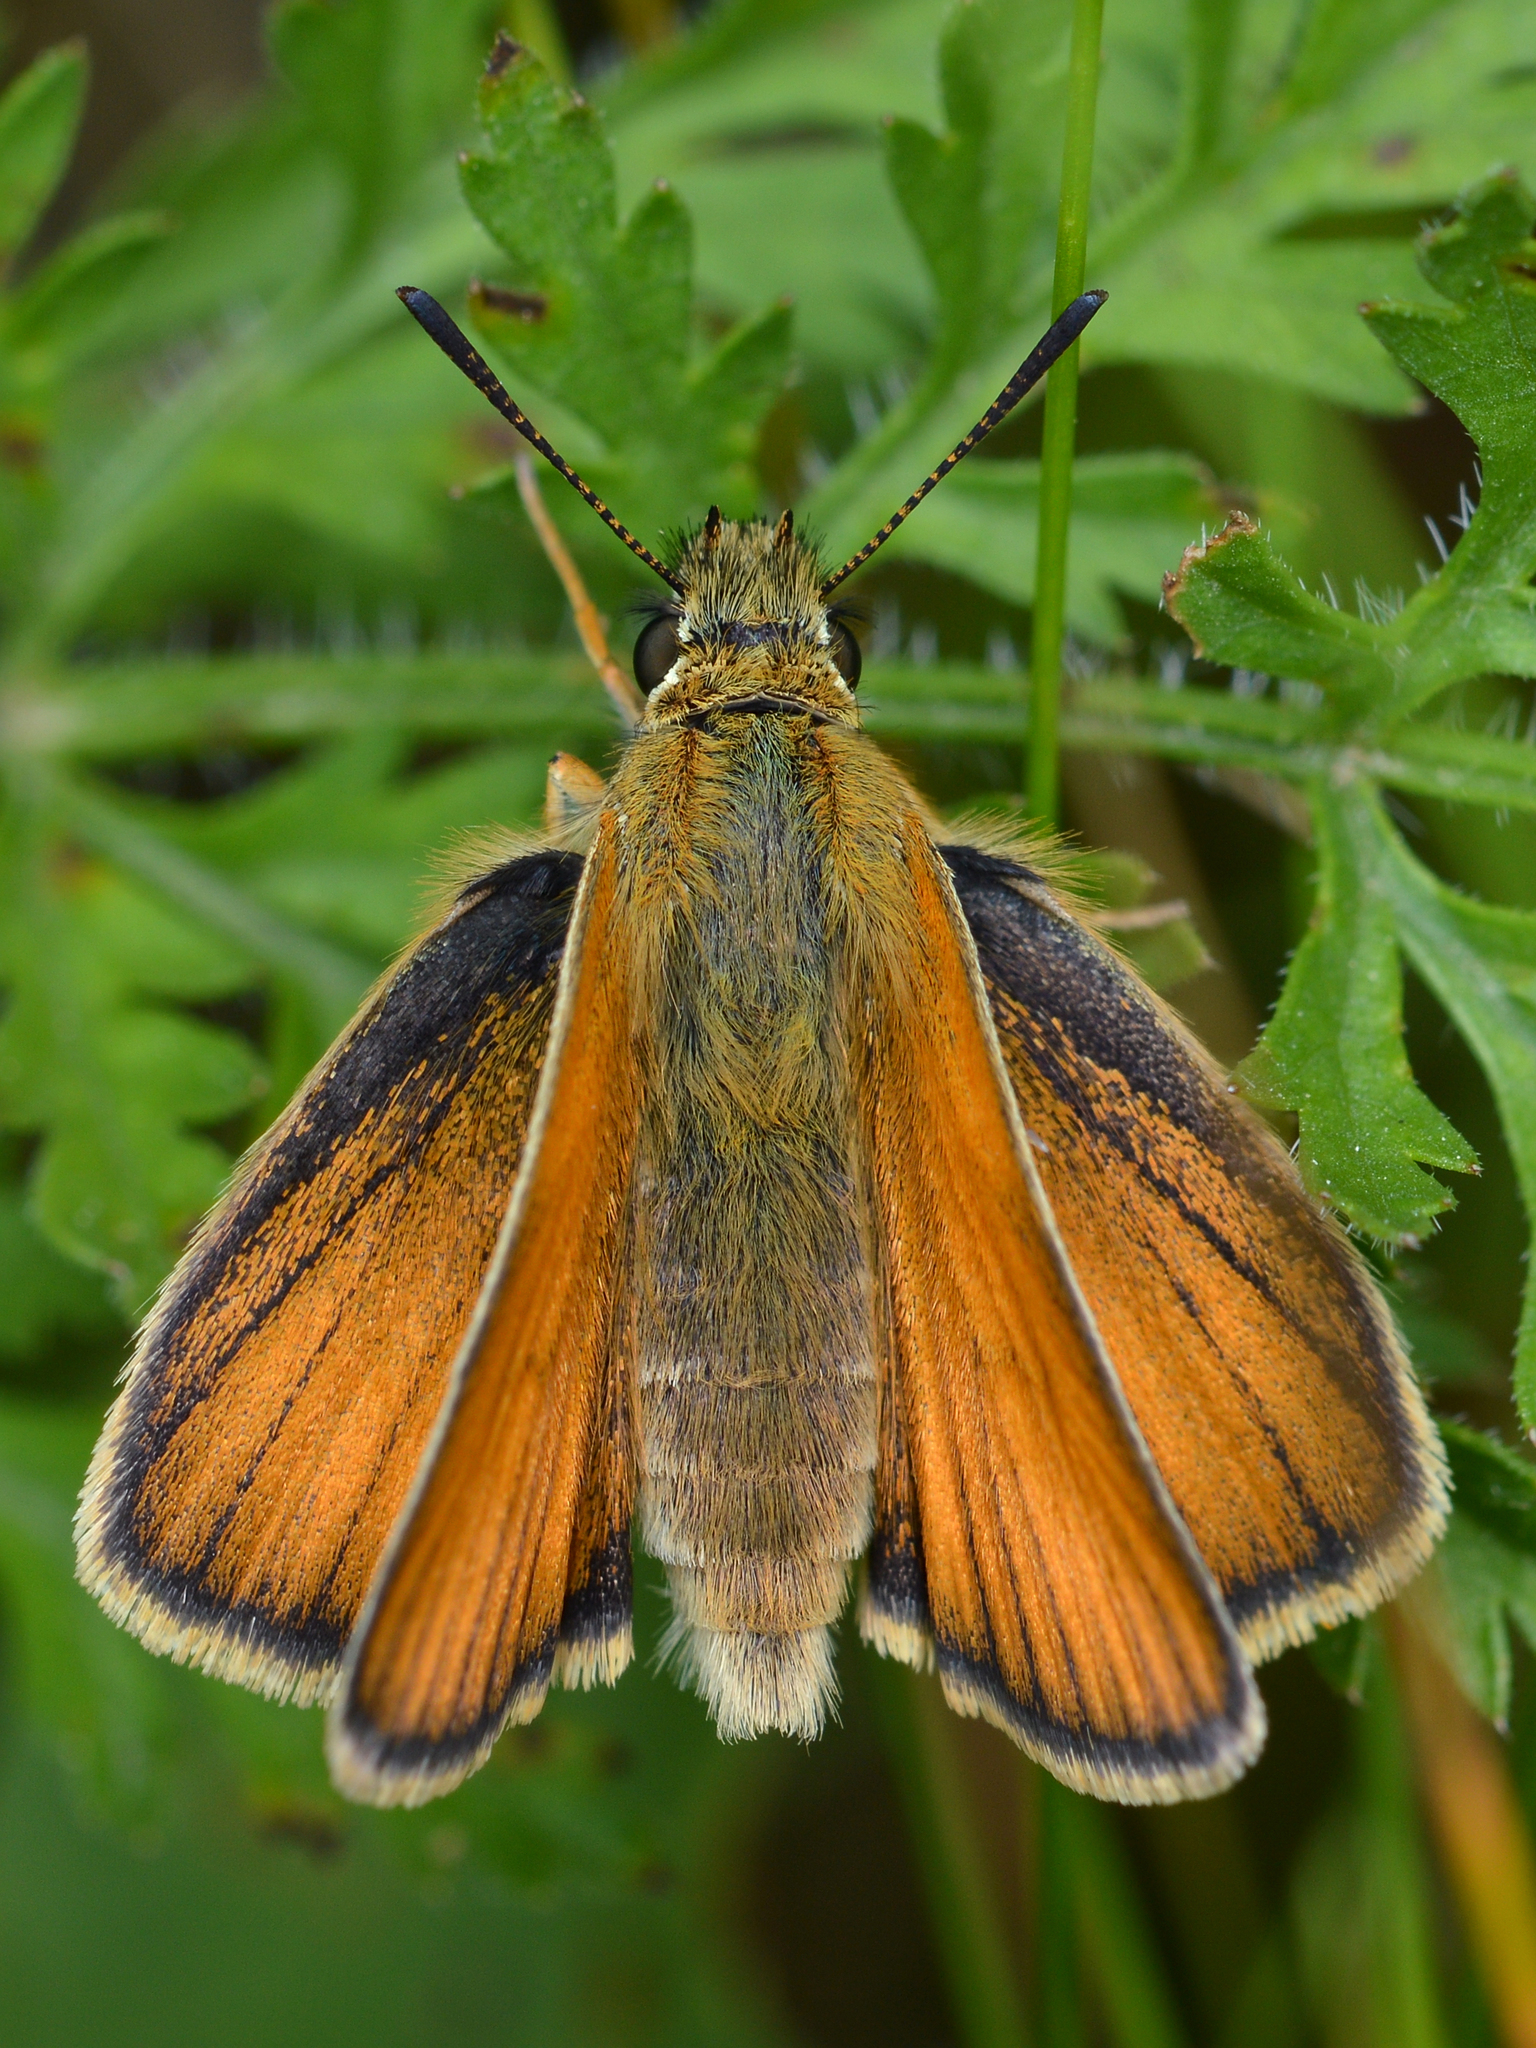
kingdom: Animalia
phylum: Arthropoda
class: Insecta
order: Lepidoptera
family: Hesperiidae
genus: Thymelicus
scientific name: Thymelicus lineola
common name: Essex skipper
